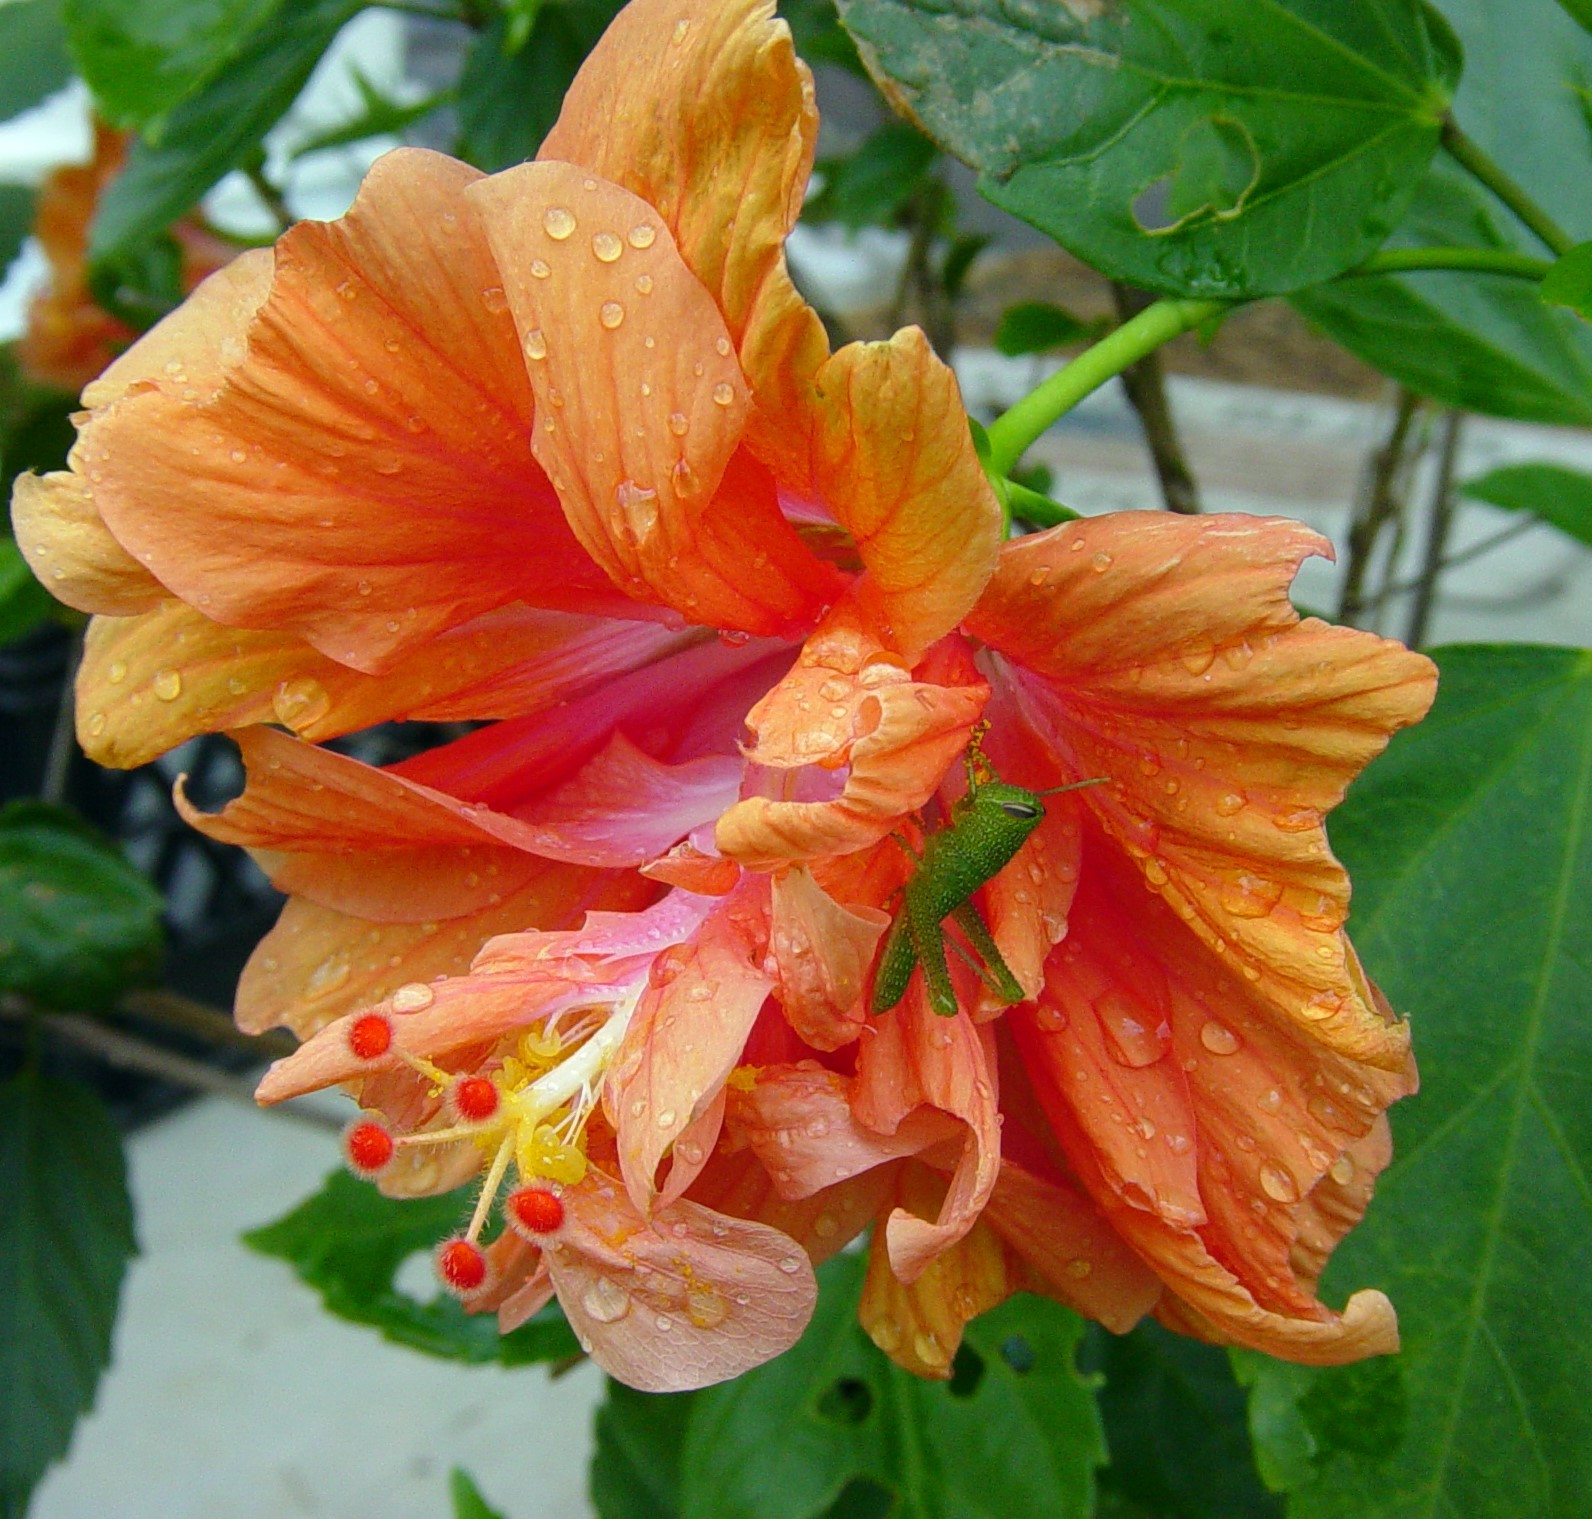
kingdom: Animalia
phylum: Arthropoda
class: Insecta
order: Orthoptera
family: Acrididae
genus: Schistocerca
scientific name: Schistocerca obscura
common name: Obscure bird grasshopper
